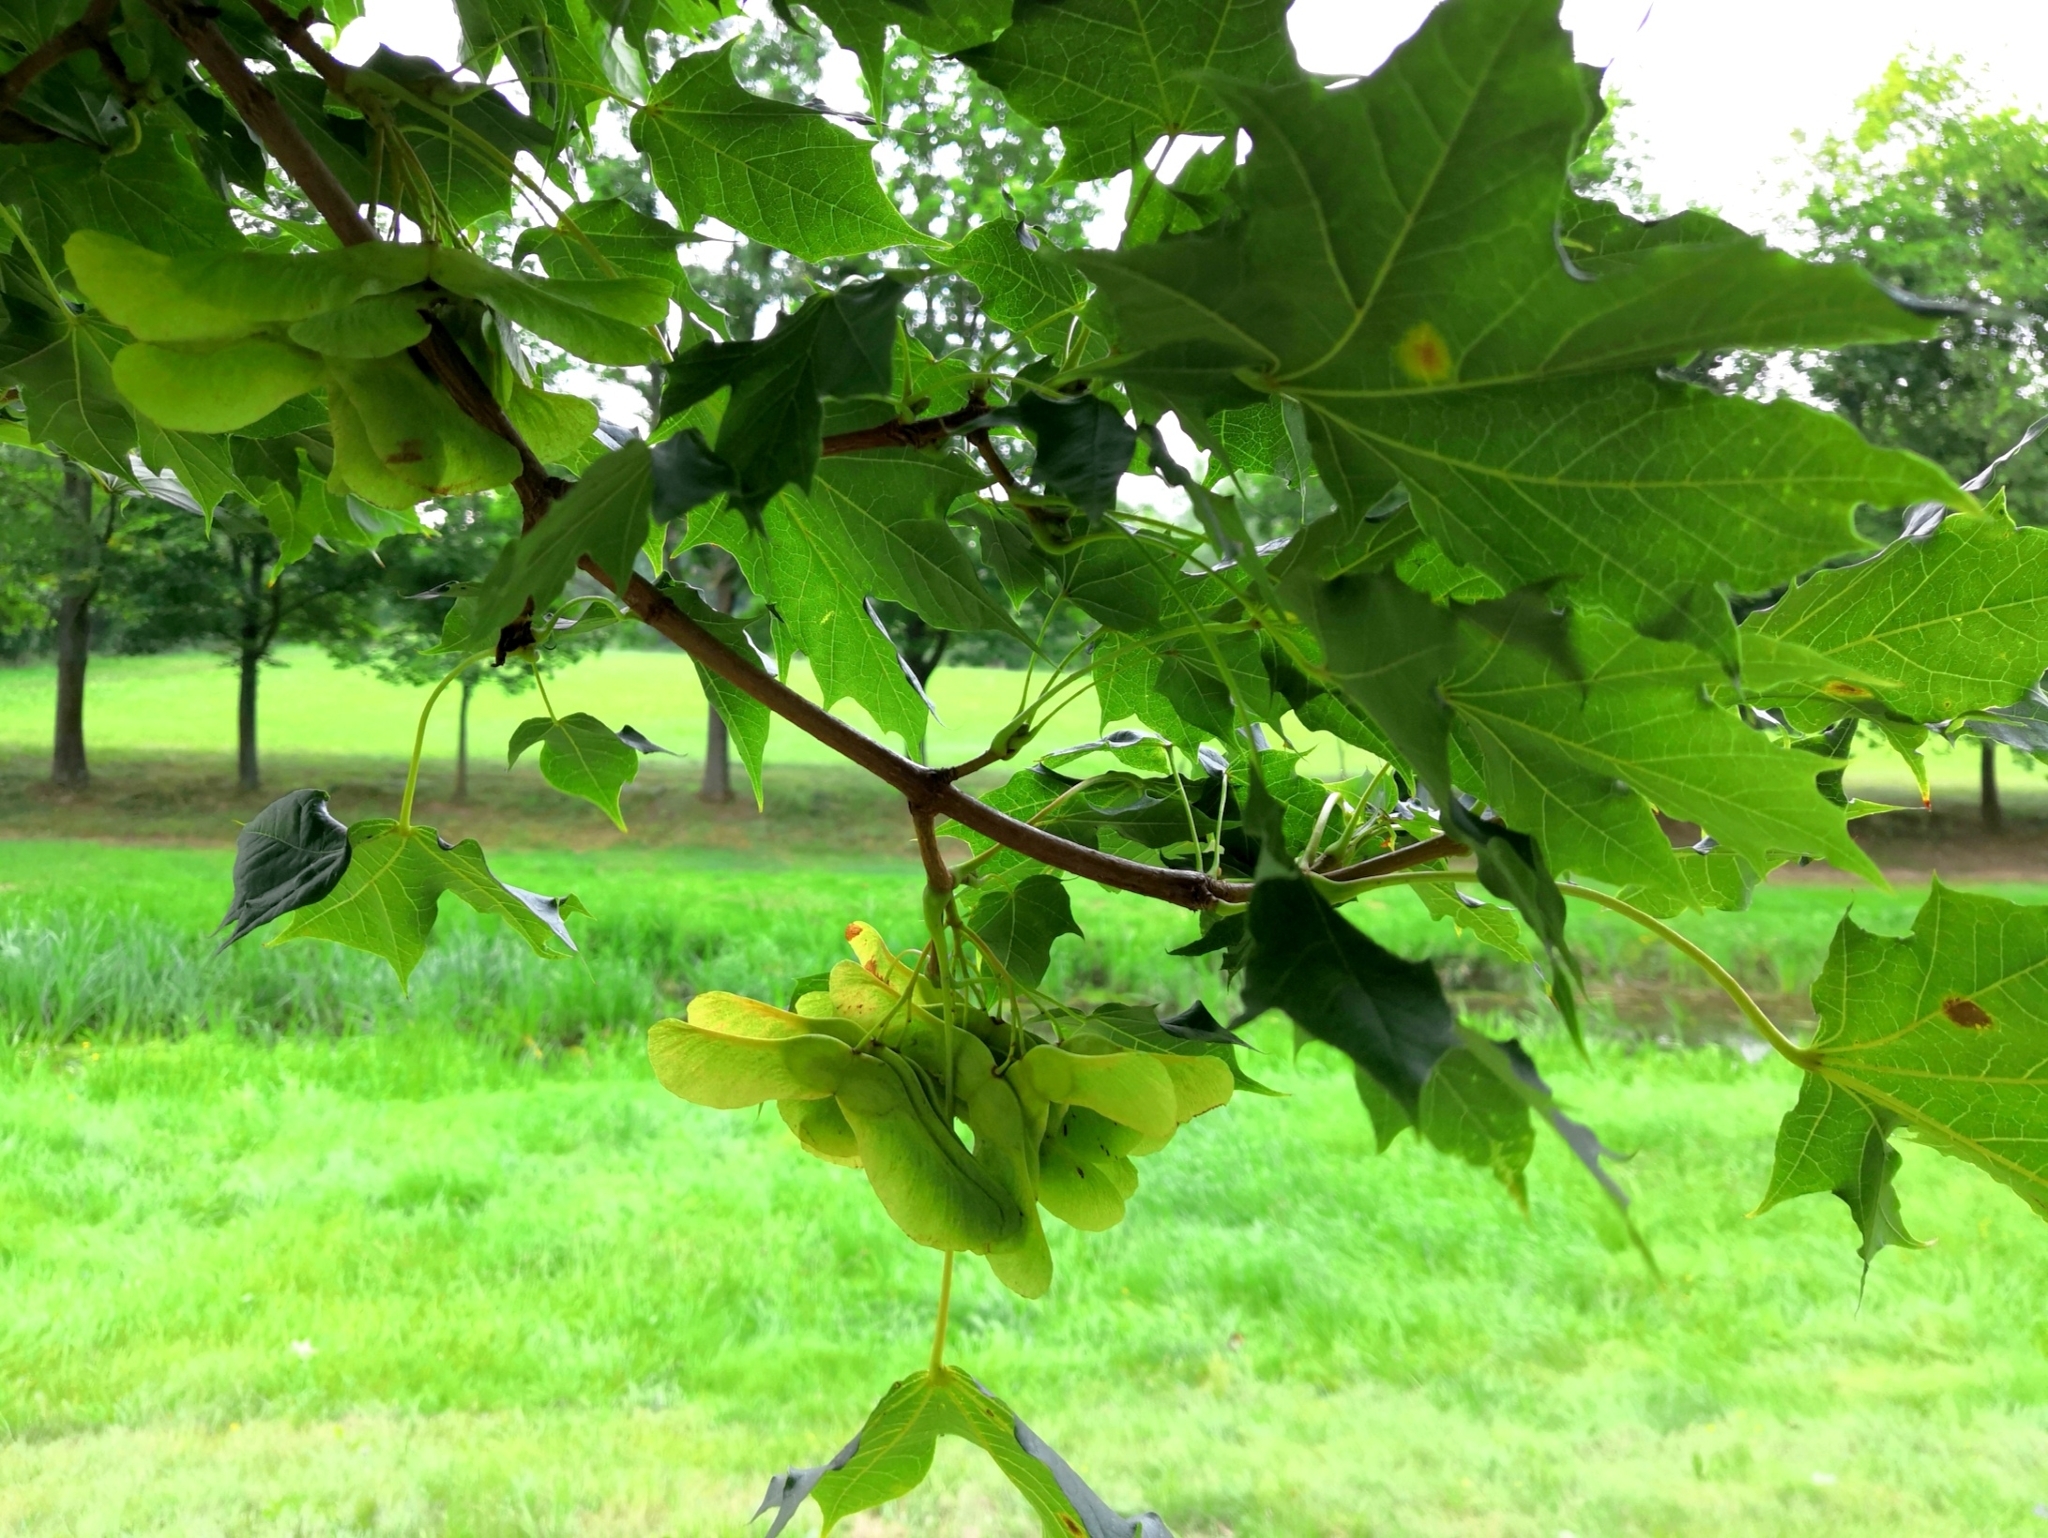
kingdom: Plantae
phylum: Tracheophyta
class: Magnoliopsida
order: Sapindales
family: Sapindaceae
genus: Acer
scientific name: Acer platanoides
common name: Norway maple
